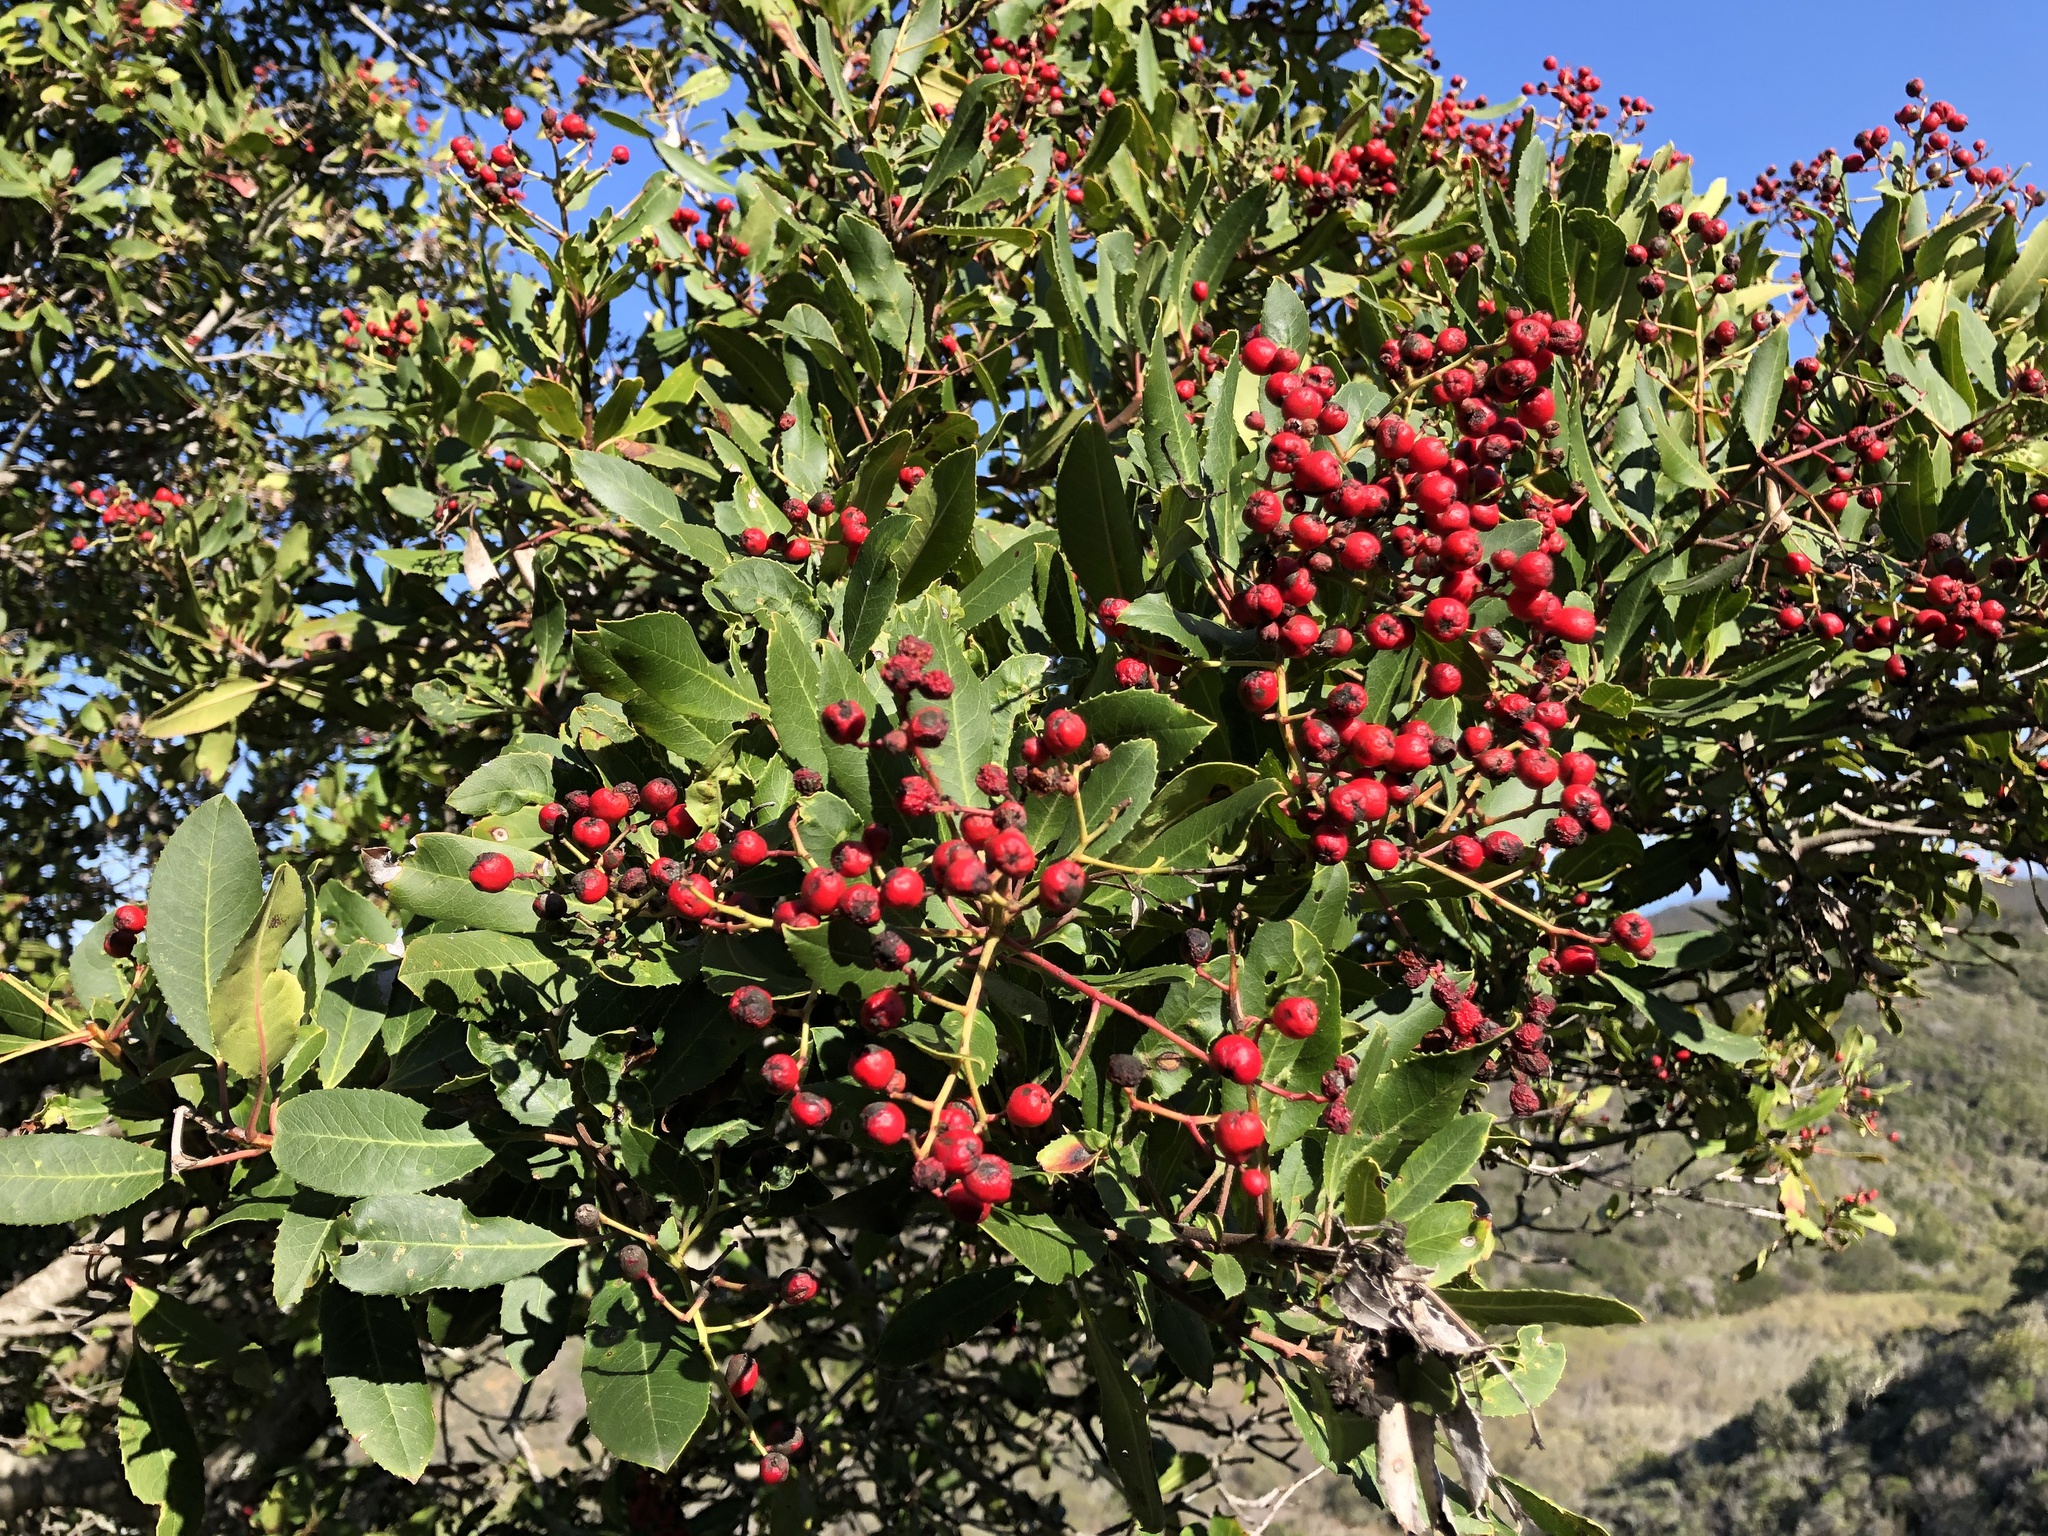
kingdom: Plantae
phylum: Tracheophyta
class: Magnoliopsida
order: Rosales
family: Rosaceae
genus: Heteromeles
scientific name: Heteromeles arbutifolia
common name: California-holly
